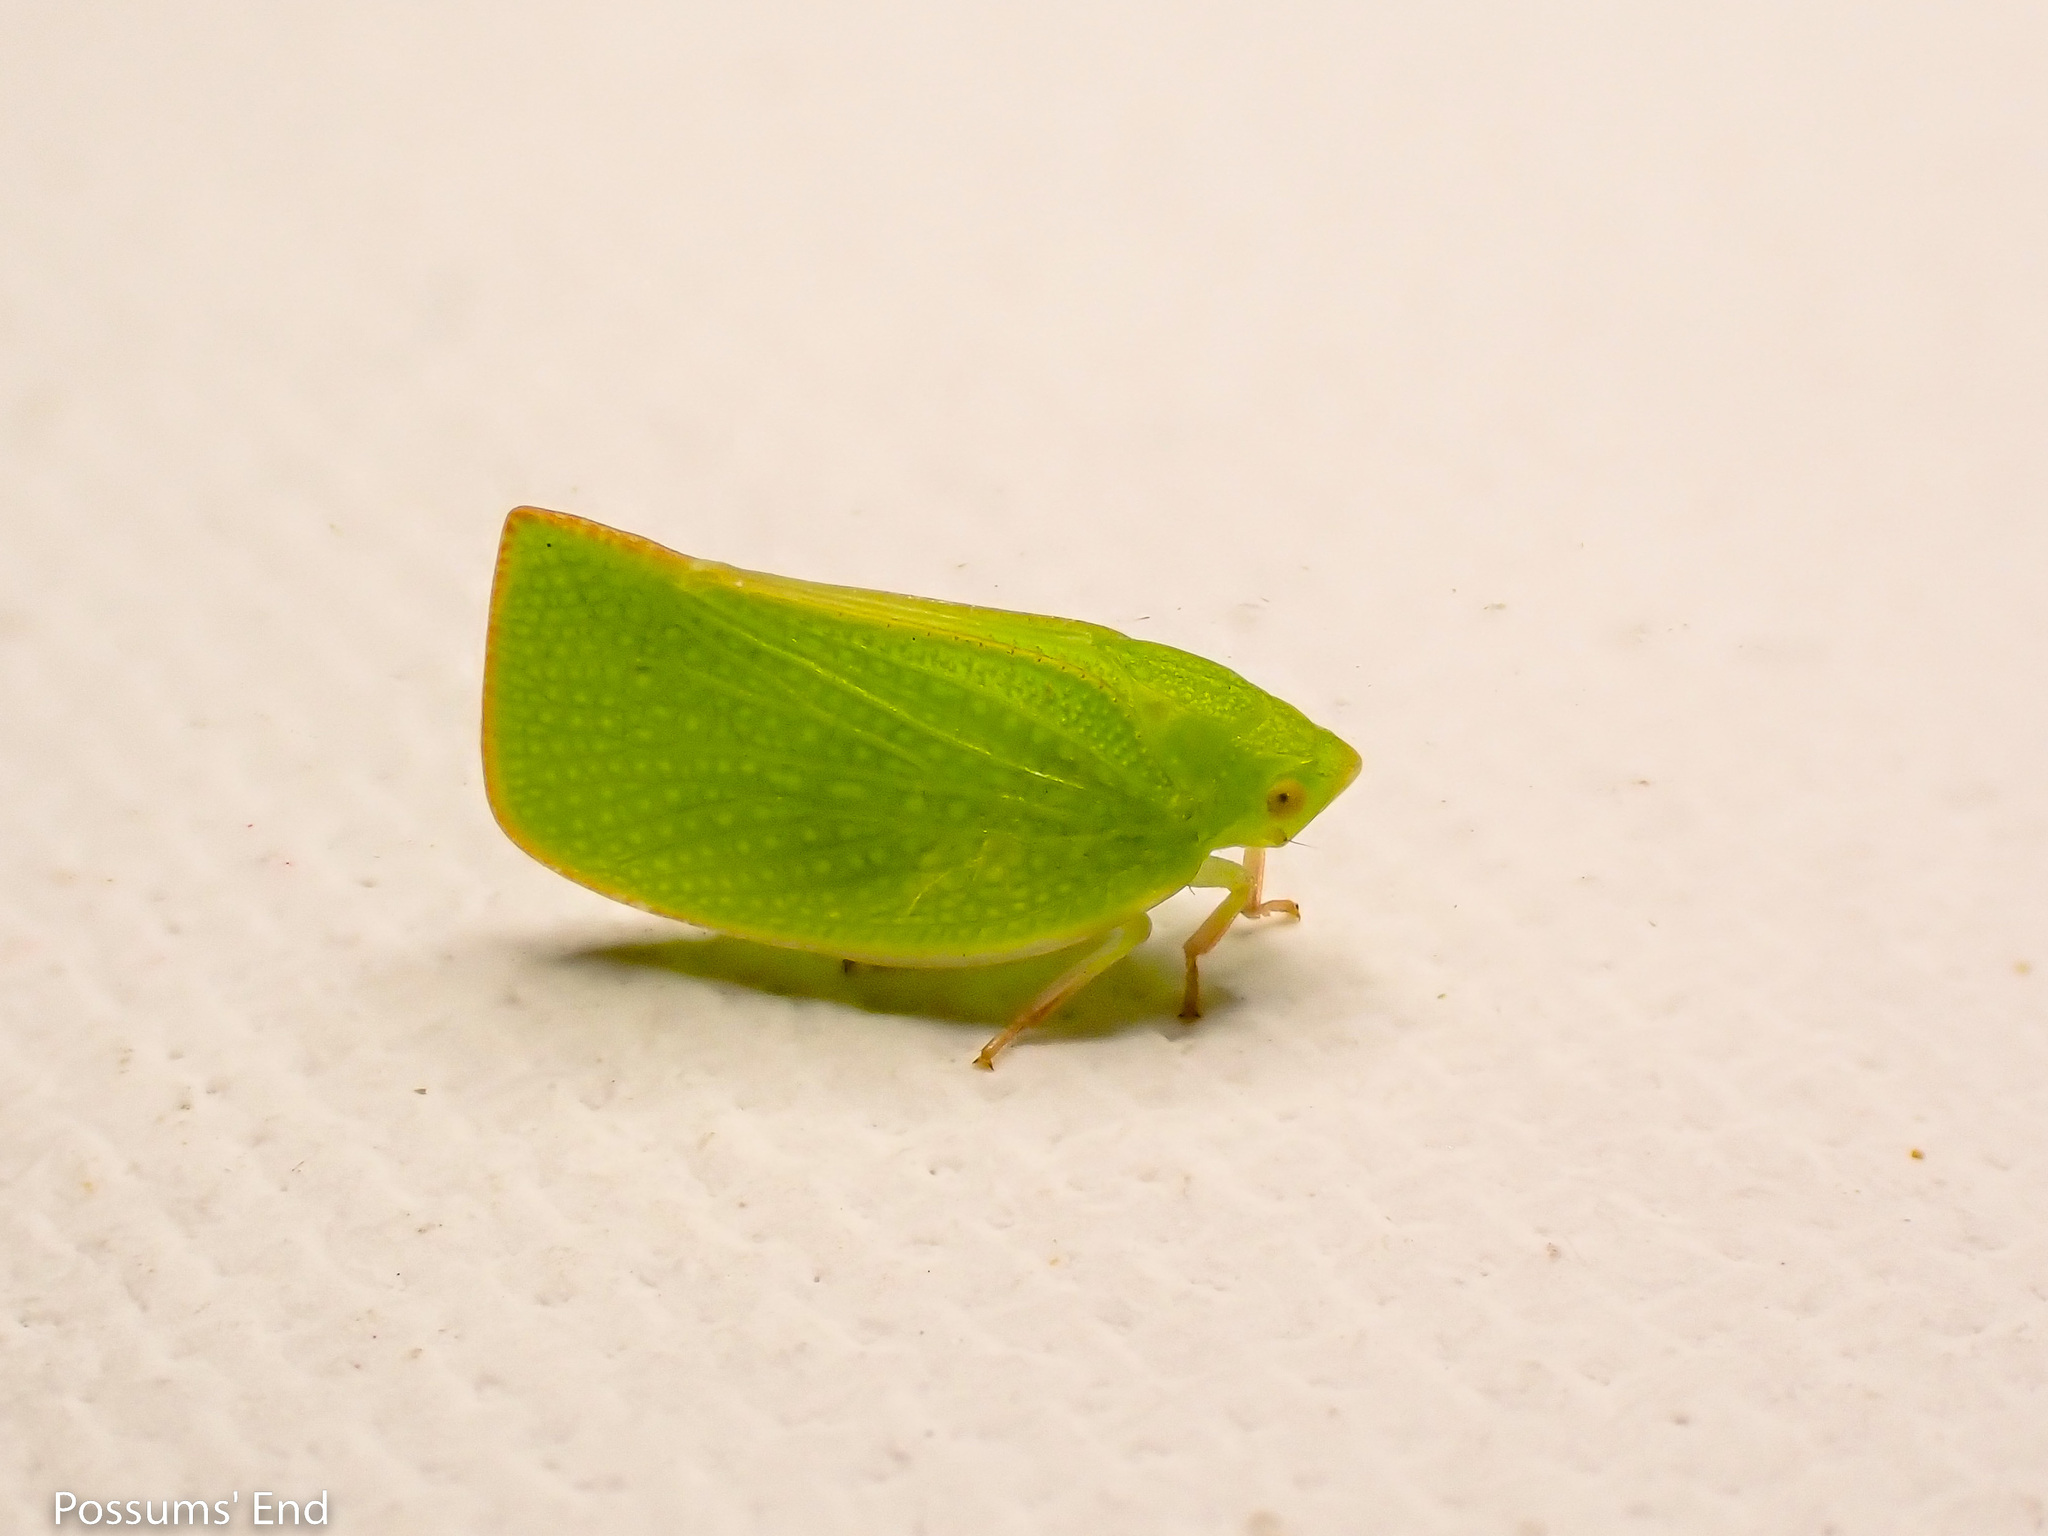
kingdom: Animalia
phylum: Arthropoda
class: Insecta
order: Hemiptera
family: Flatidae
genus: Siphanta
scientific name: Siphanta acuta
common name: Torpedo bug
